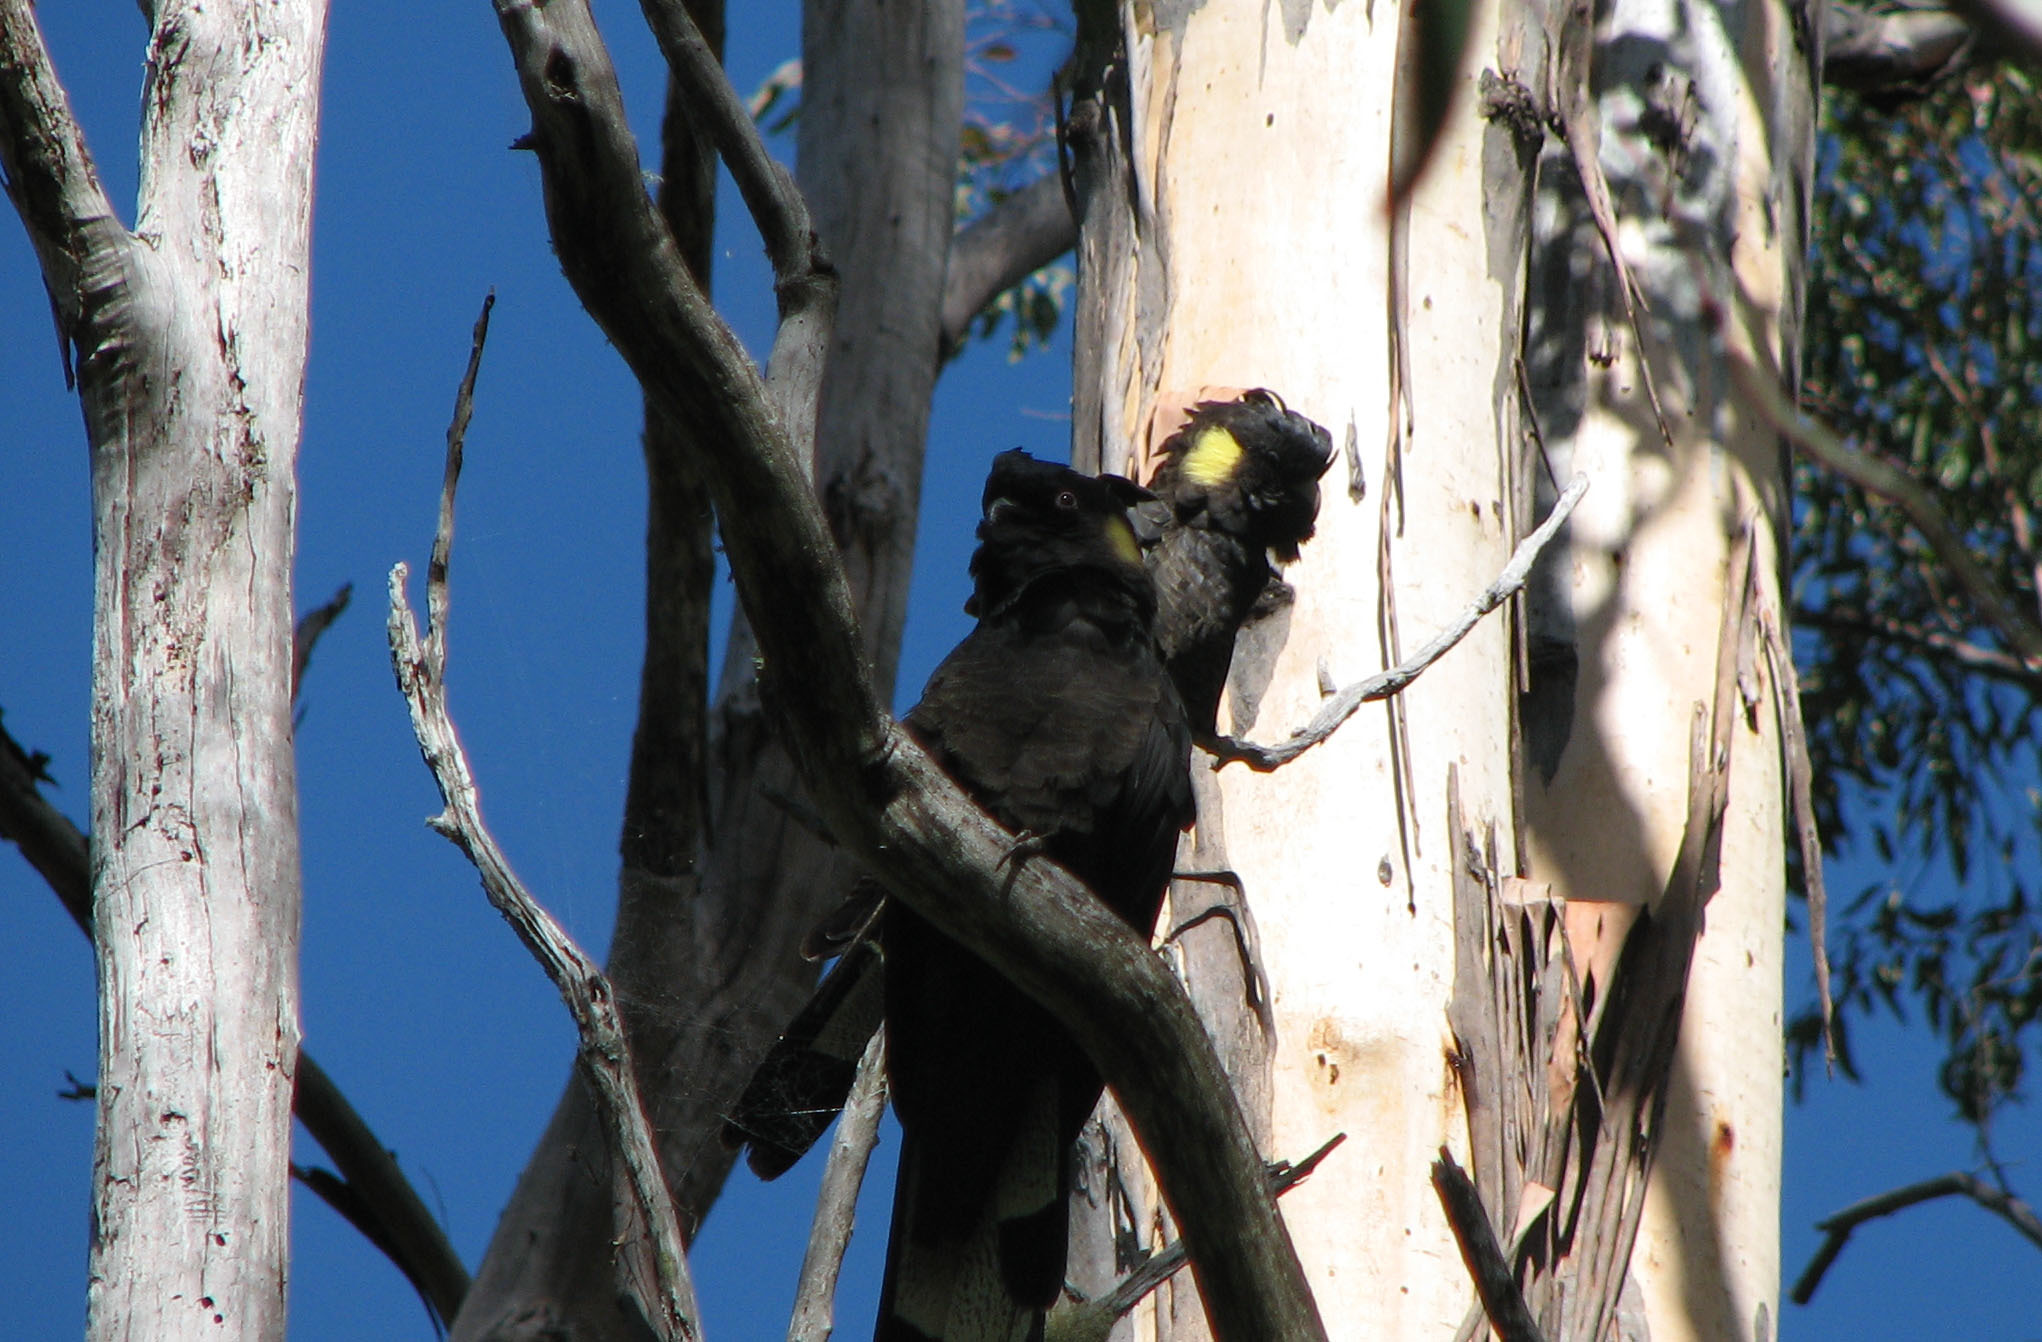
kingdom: Animalia
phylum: Chordata
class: Aves
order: Psittaciformes
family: Cacatuidae
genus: Zanda
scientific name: Zanda funerea
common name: Yellow-tailed black-cockatoo
